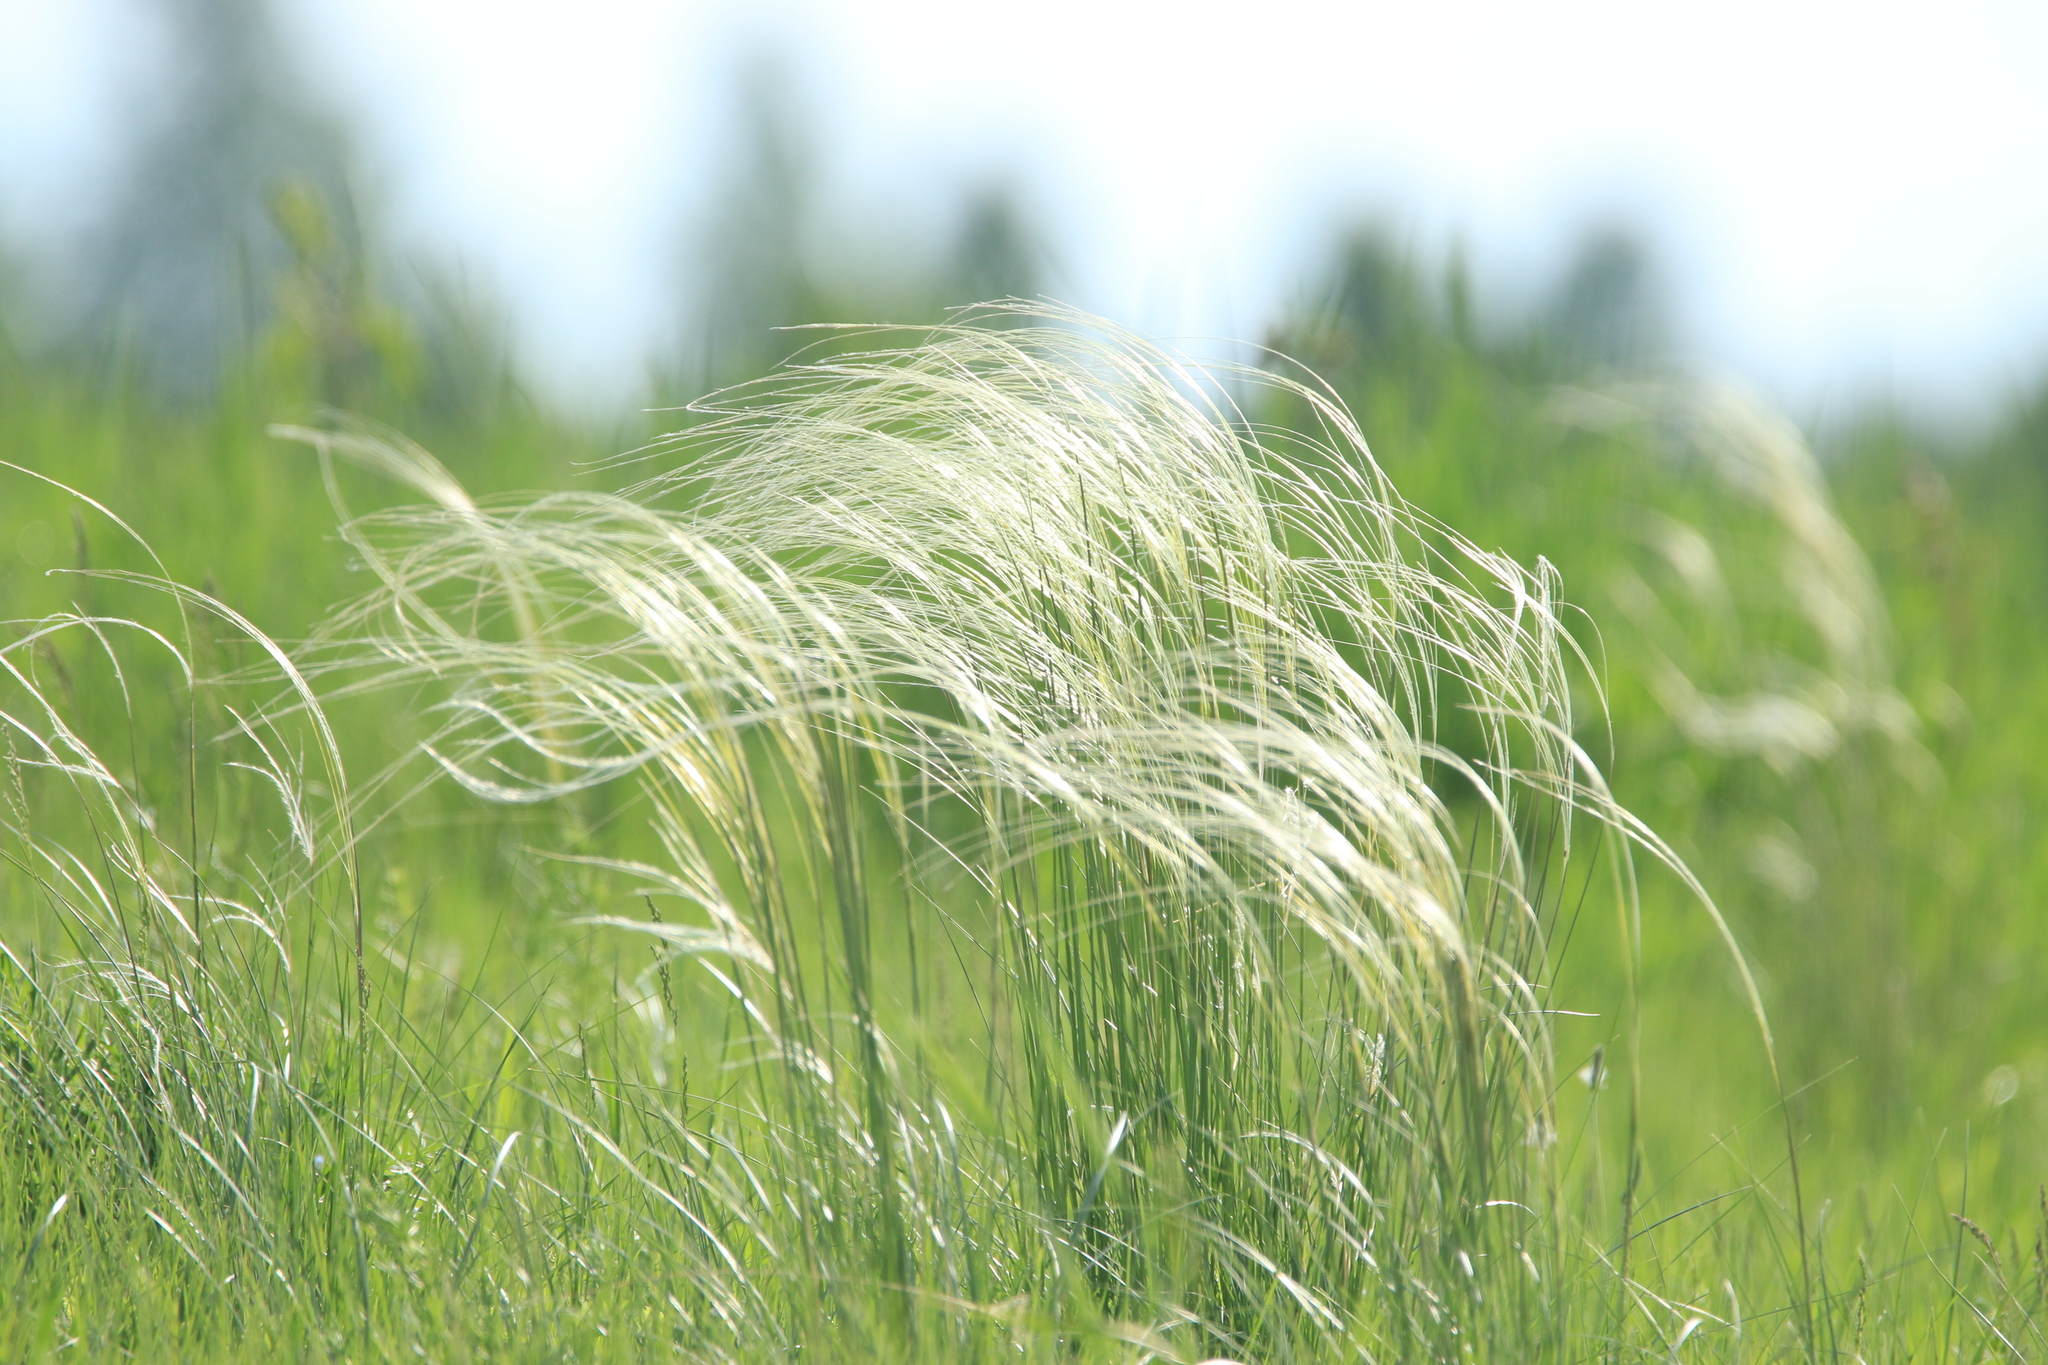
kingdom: Plantae
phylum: Tracheophyta
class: Liliopsida
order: Poales
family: Poaceae
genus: Stipa
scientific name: Stipa pennata
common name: European feather grass
